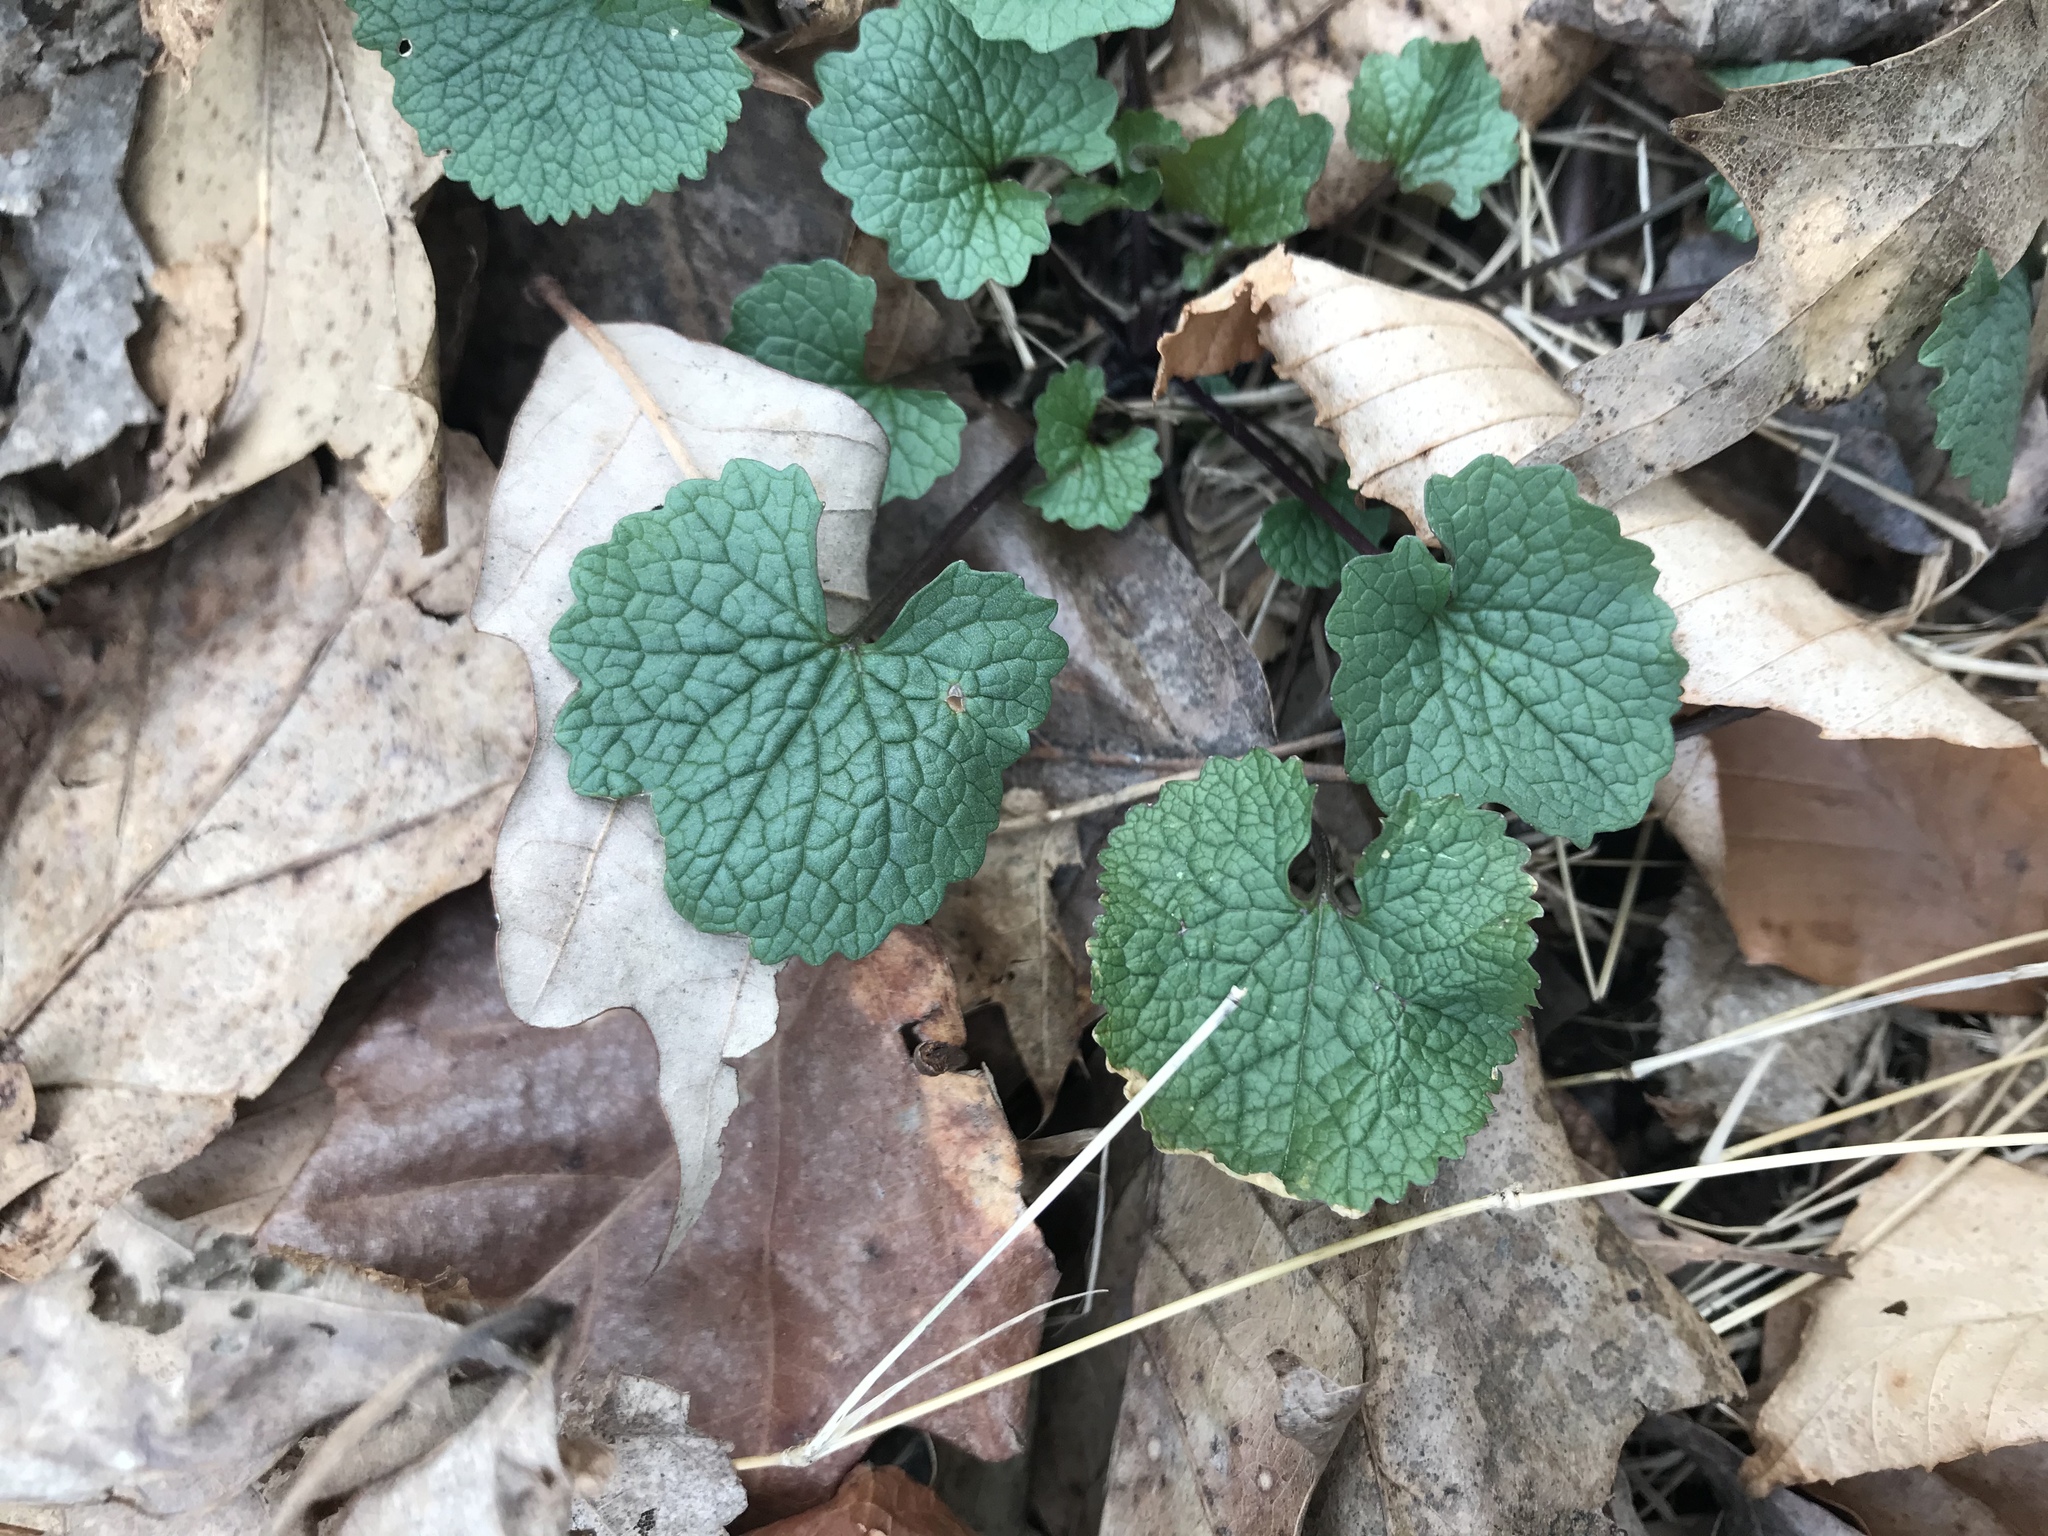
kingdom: Plantae
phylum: Tracheophyta
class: Magnoliopsida
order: Brassicales
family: Brassicaceae
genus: Alliaria
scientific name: Alliaria petiolata
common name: Garlic mustard
